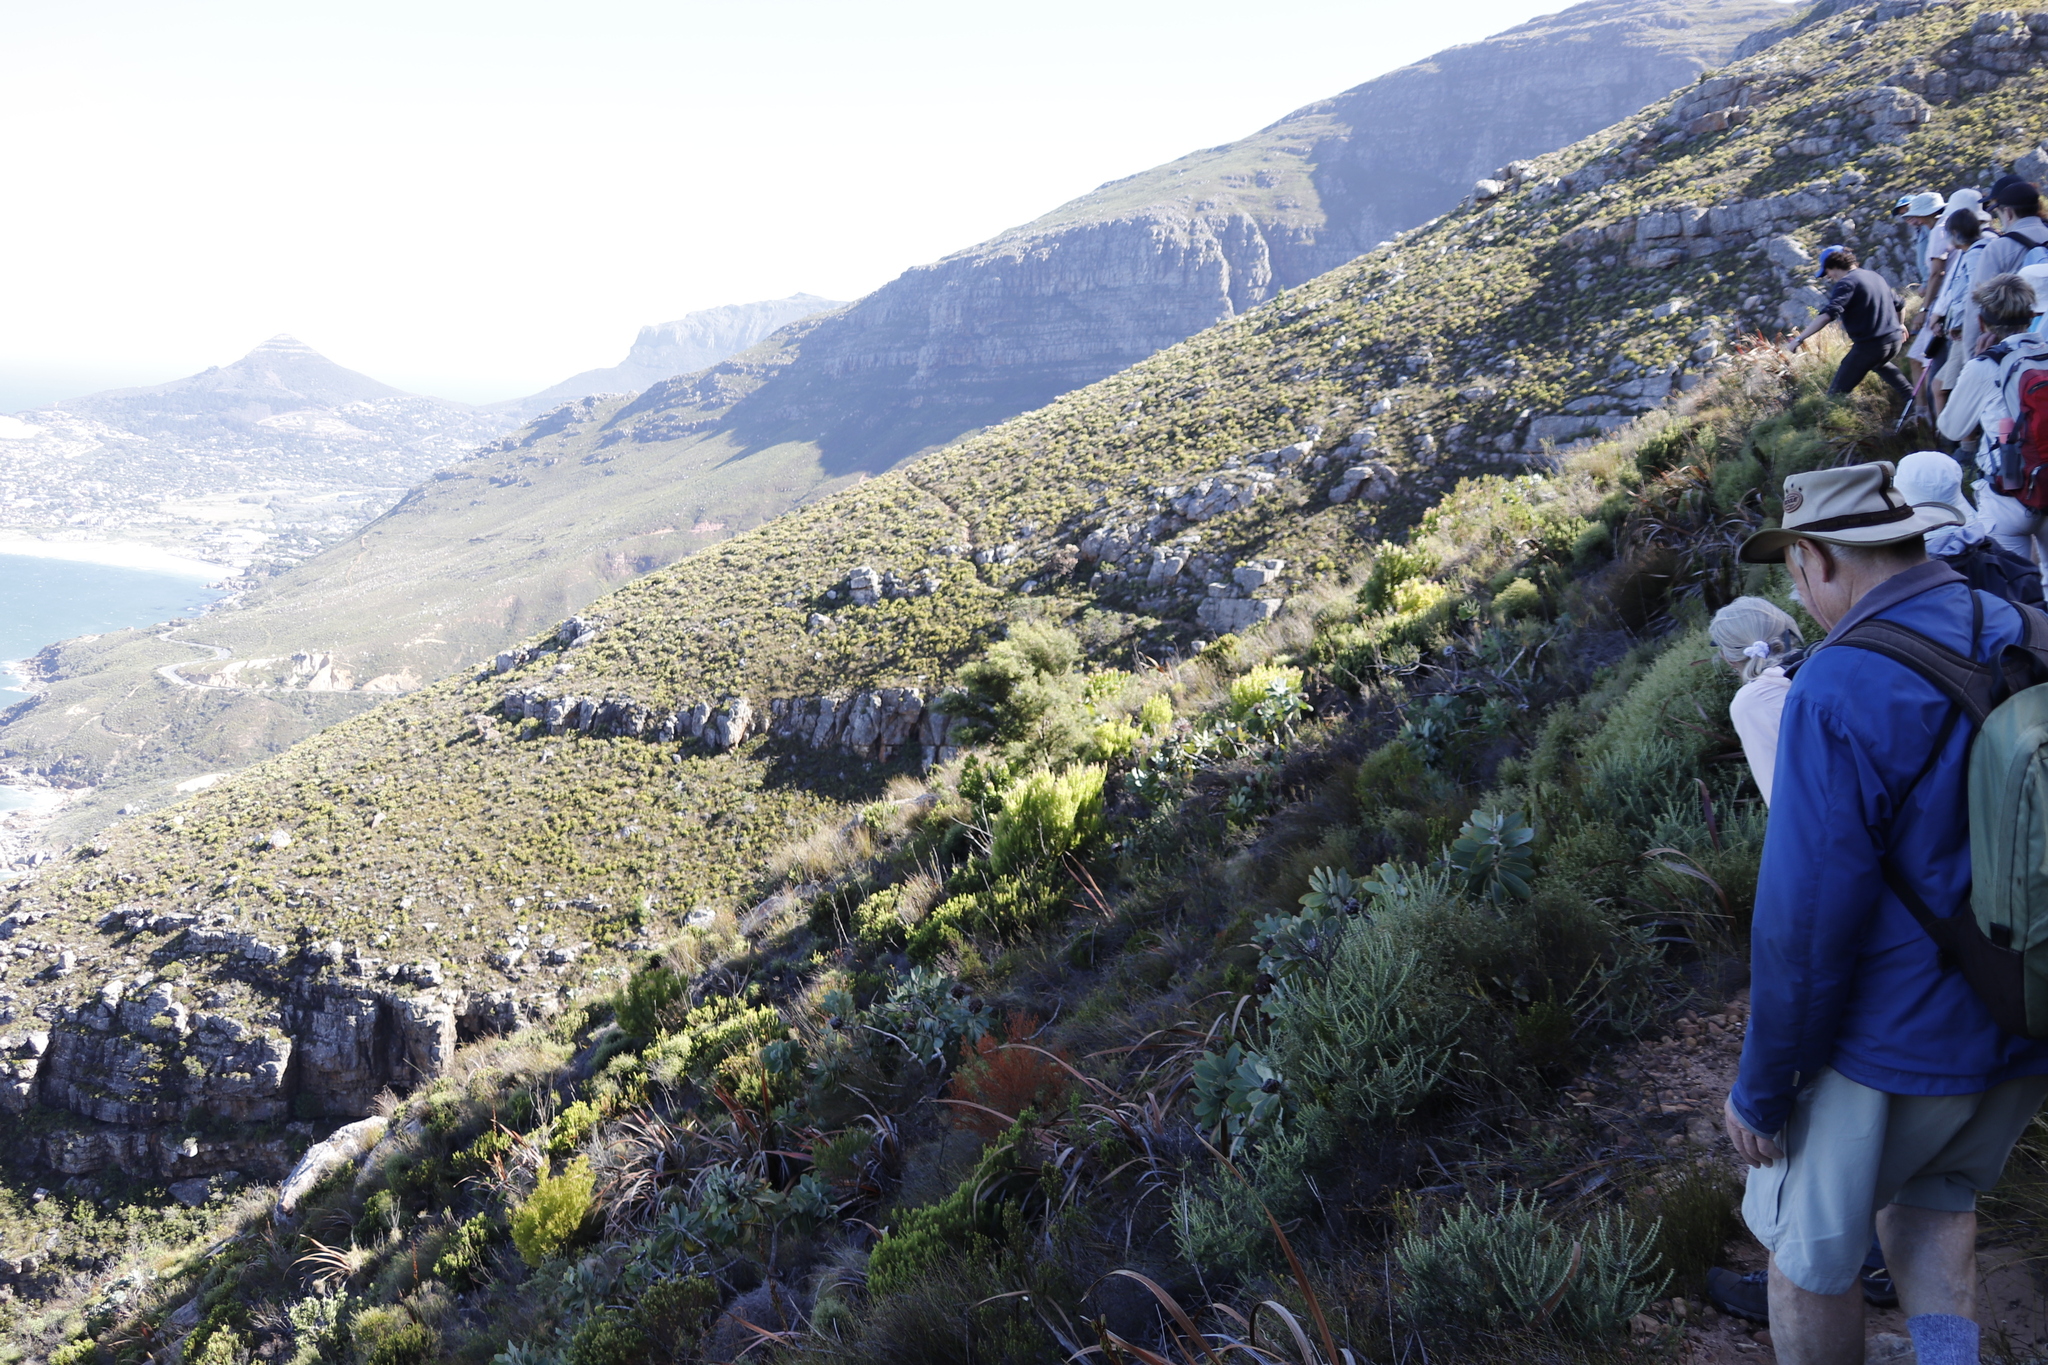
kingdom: Plantae
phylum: Tracheophyta
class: Magnoliopsida
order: Proteales
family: Proteaceae
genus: Hakea
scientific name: Hakea gibbosa
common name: Rock hakea
